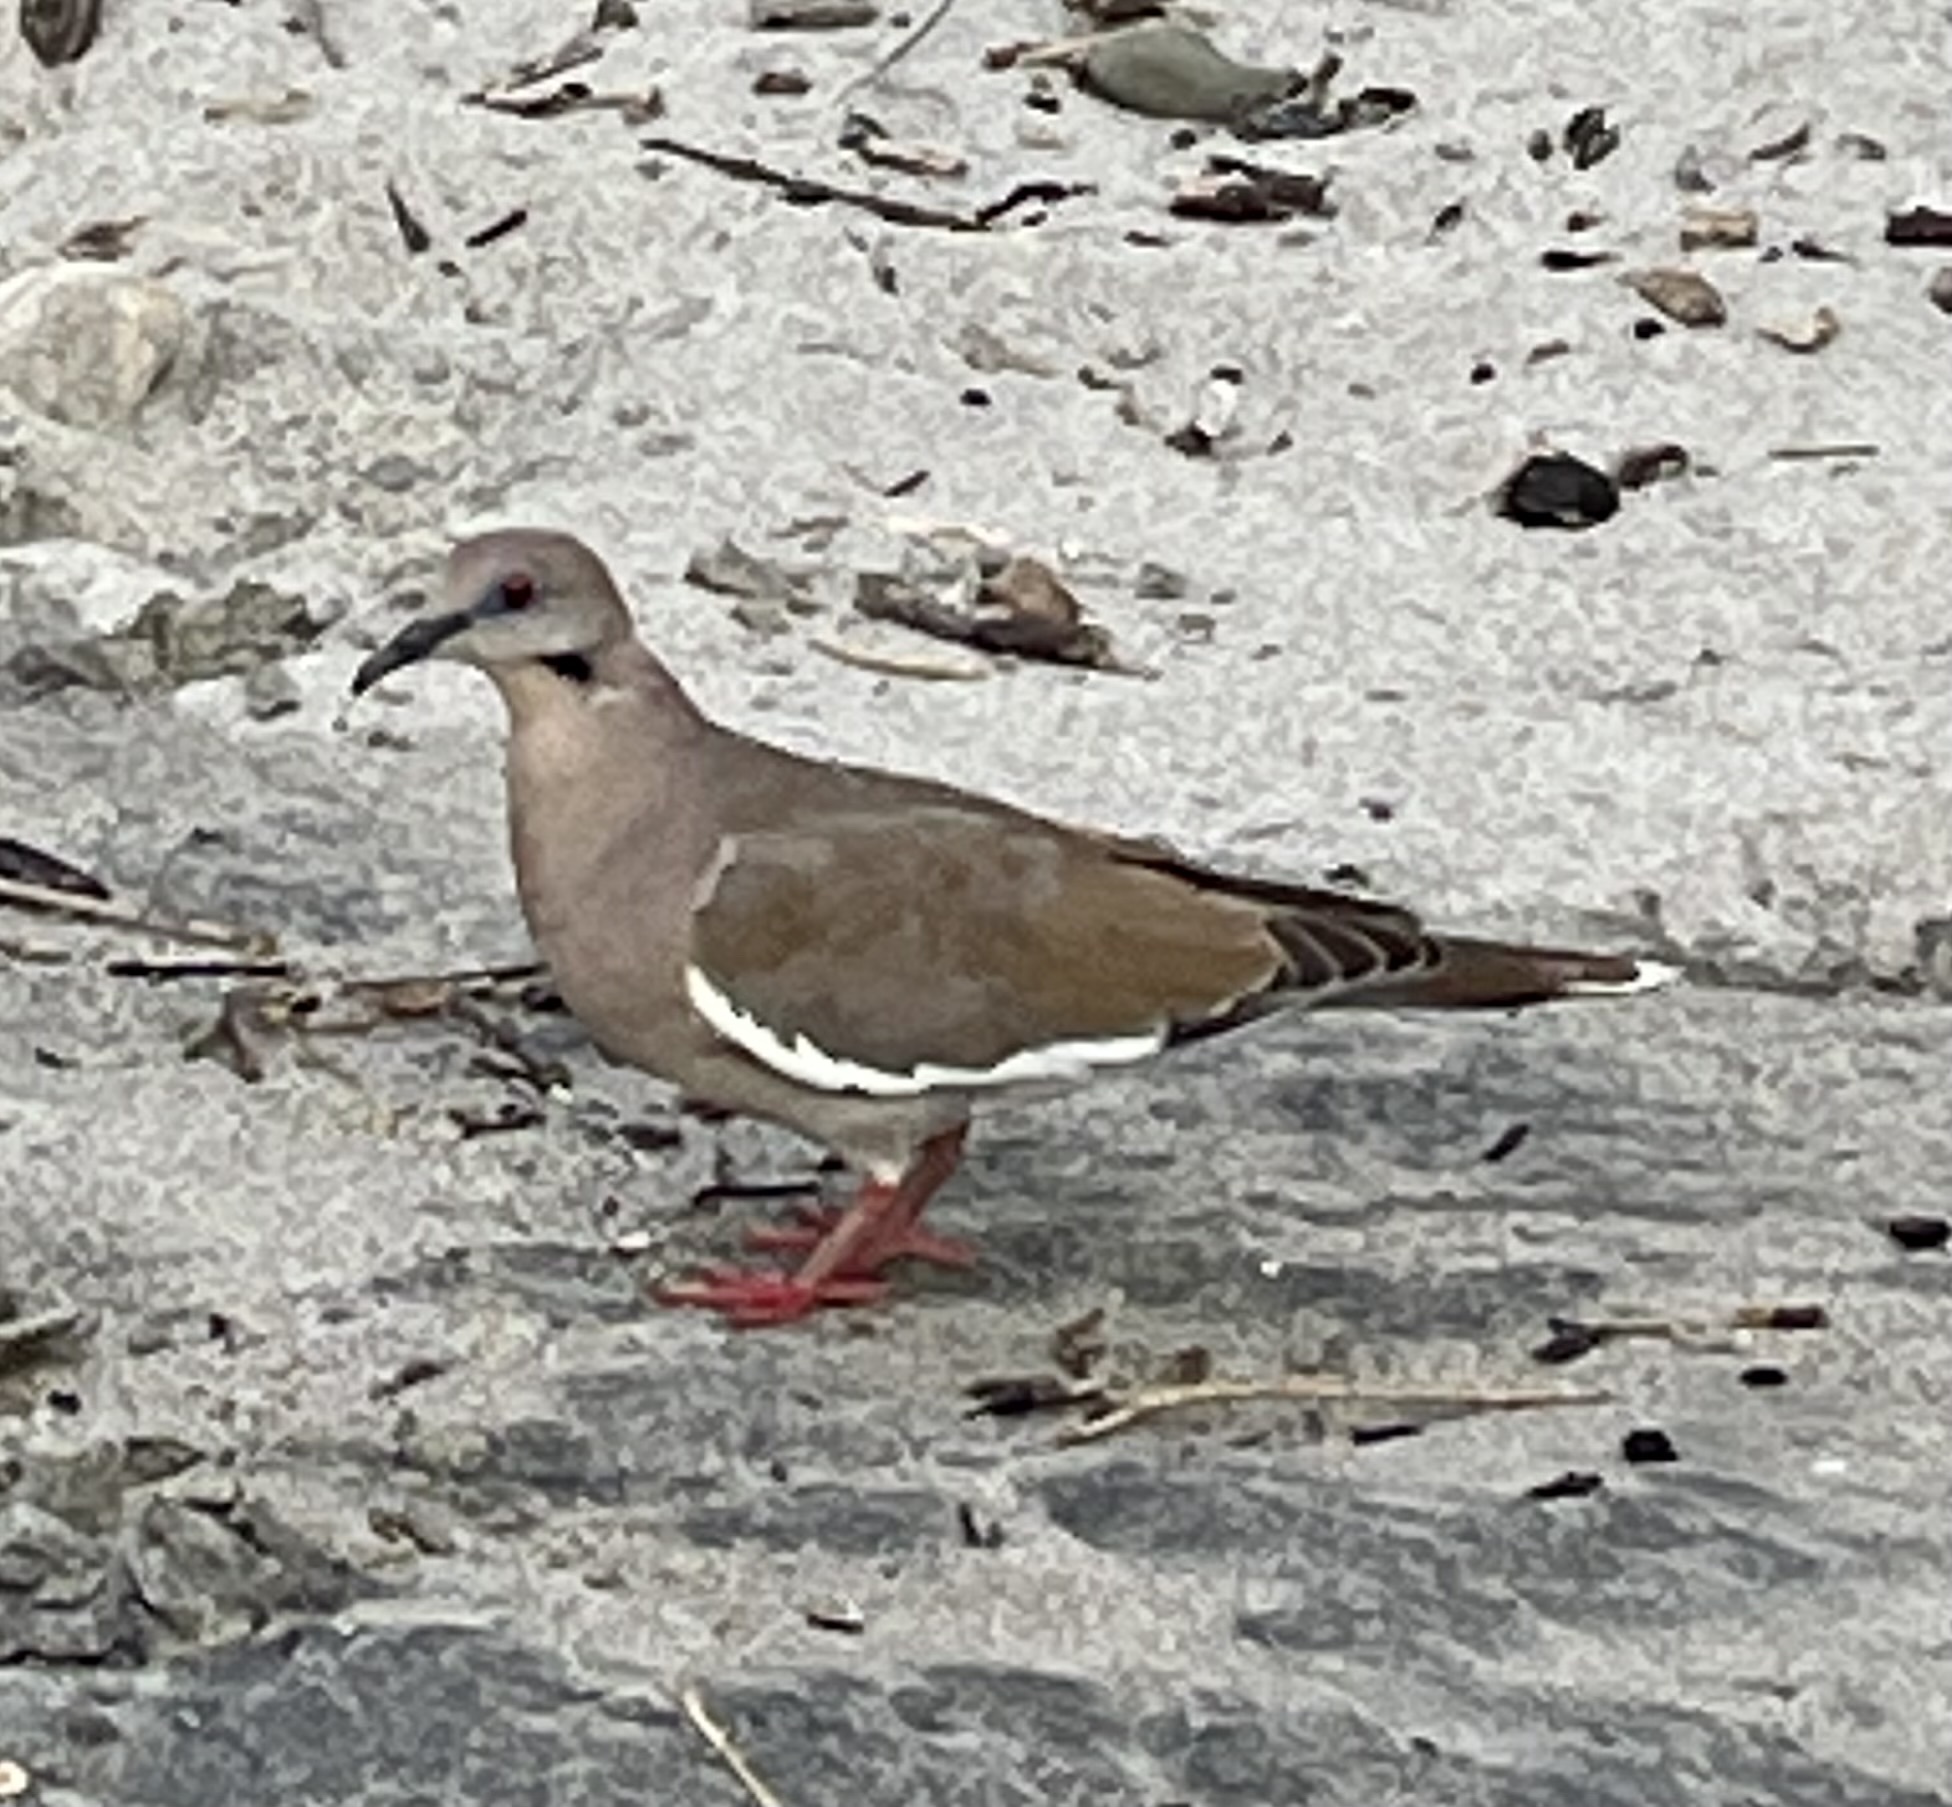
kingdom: Animalia
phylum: Chordata
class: Aves
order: Columbiformes
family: Columbidae
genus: Zenaida
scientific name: Zenaida asiatica
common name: White-winged dove
